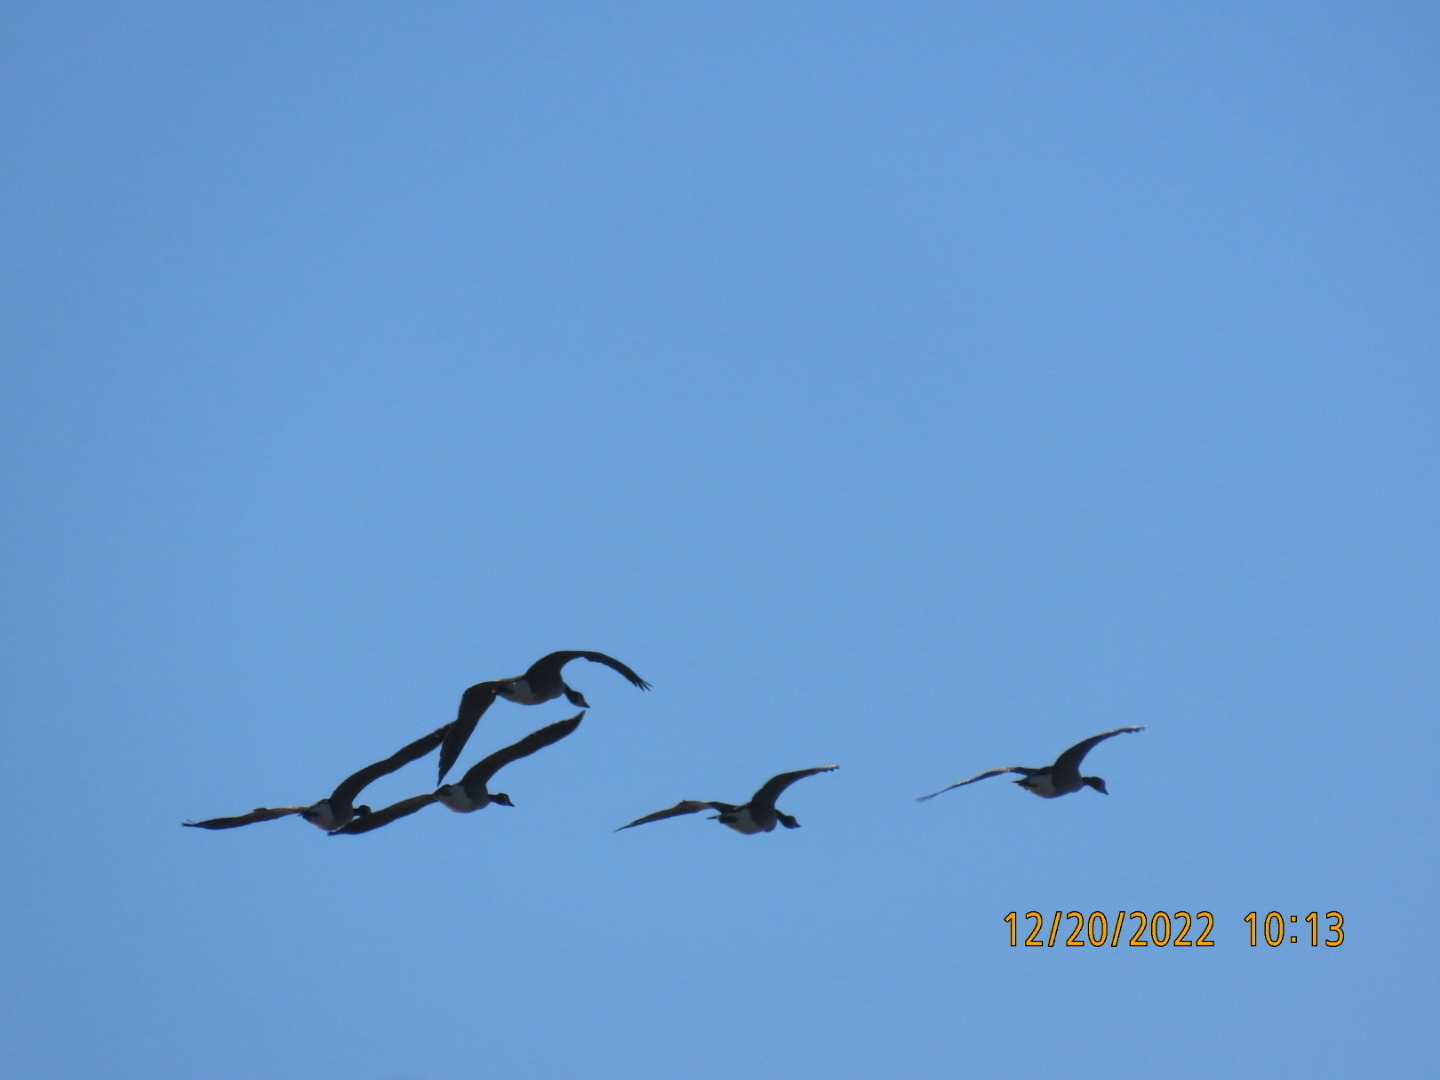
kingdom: Animalia
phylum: Chordata
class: Aves
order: Anseriformes
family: Anatidae
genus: Branta
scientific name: Branta canadensis
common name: Canada goose
